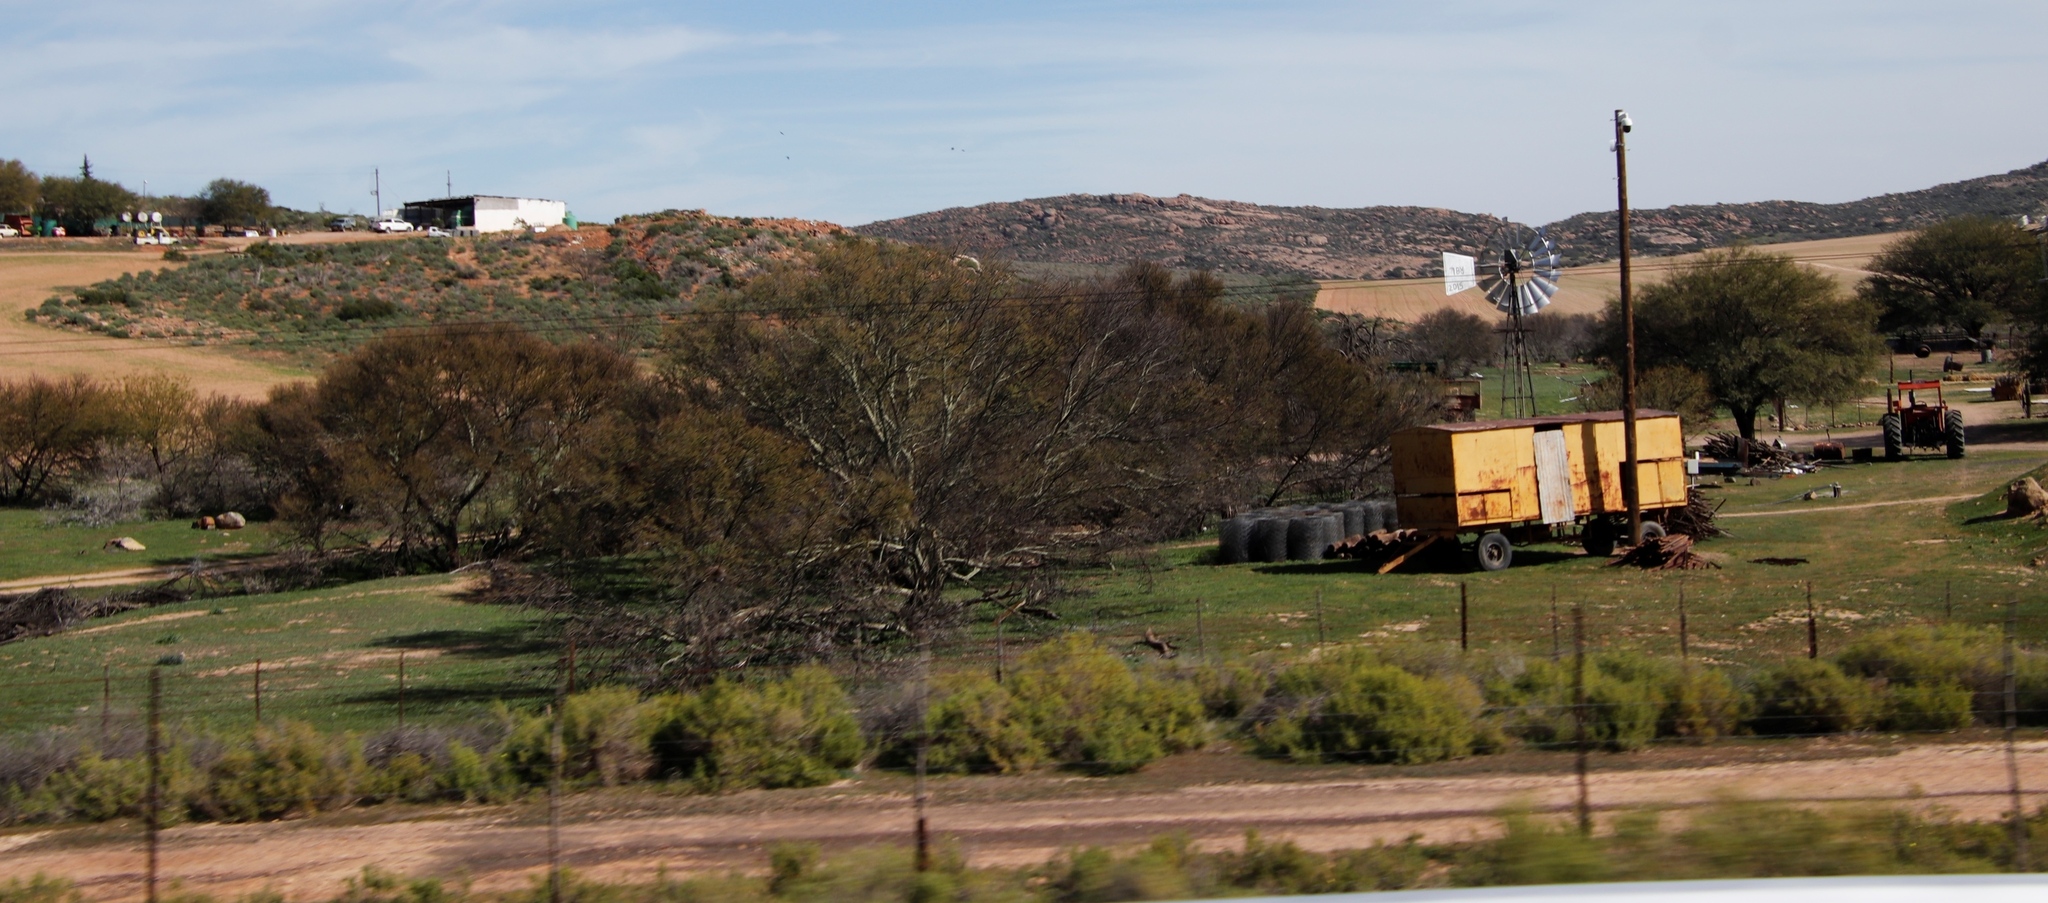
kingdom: Plantae
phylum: Tracheophyta
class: Magnoliopsida
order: Fabales
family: Fabaceae
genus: Vachellia
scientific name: Vachellia karroo
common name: Sweet thorn
